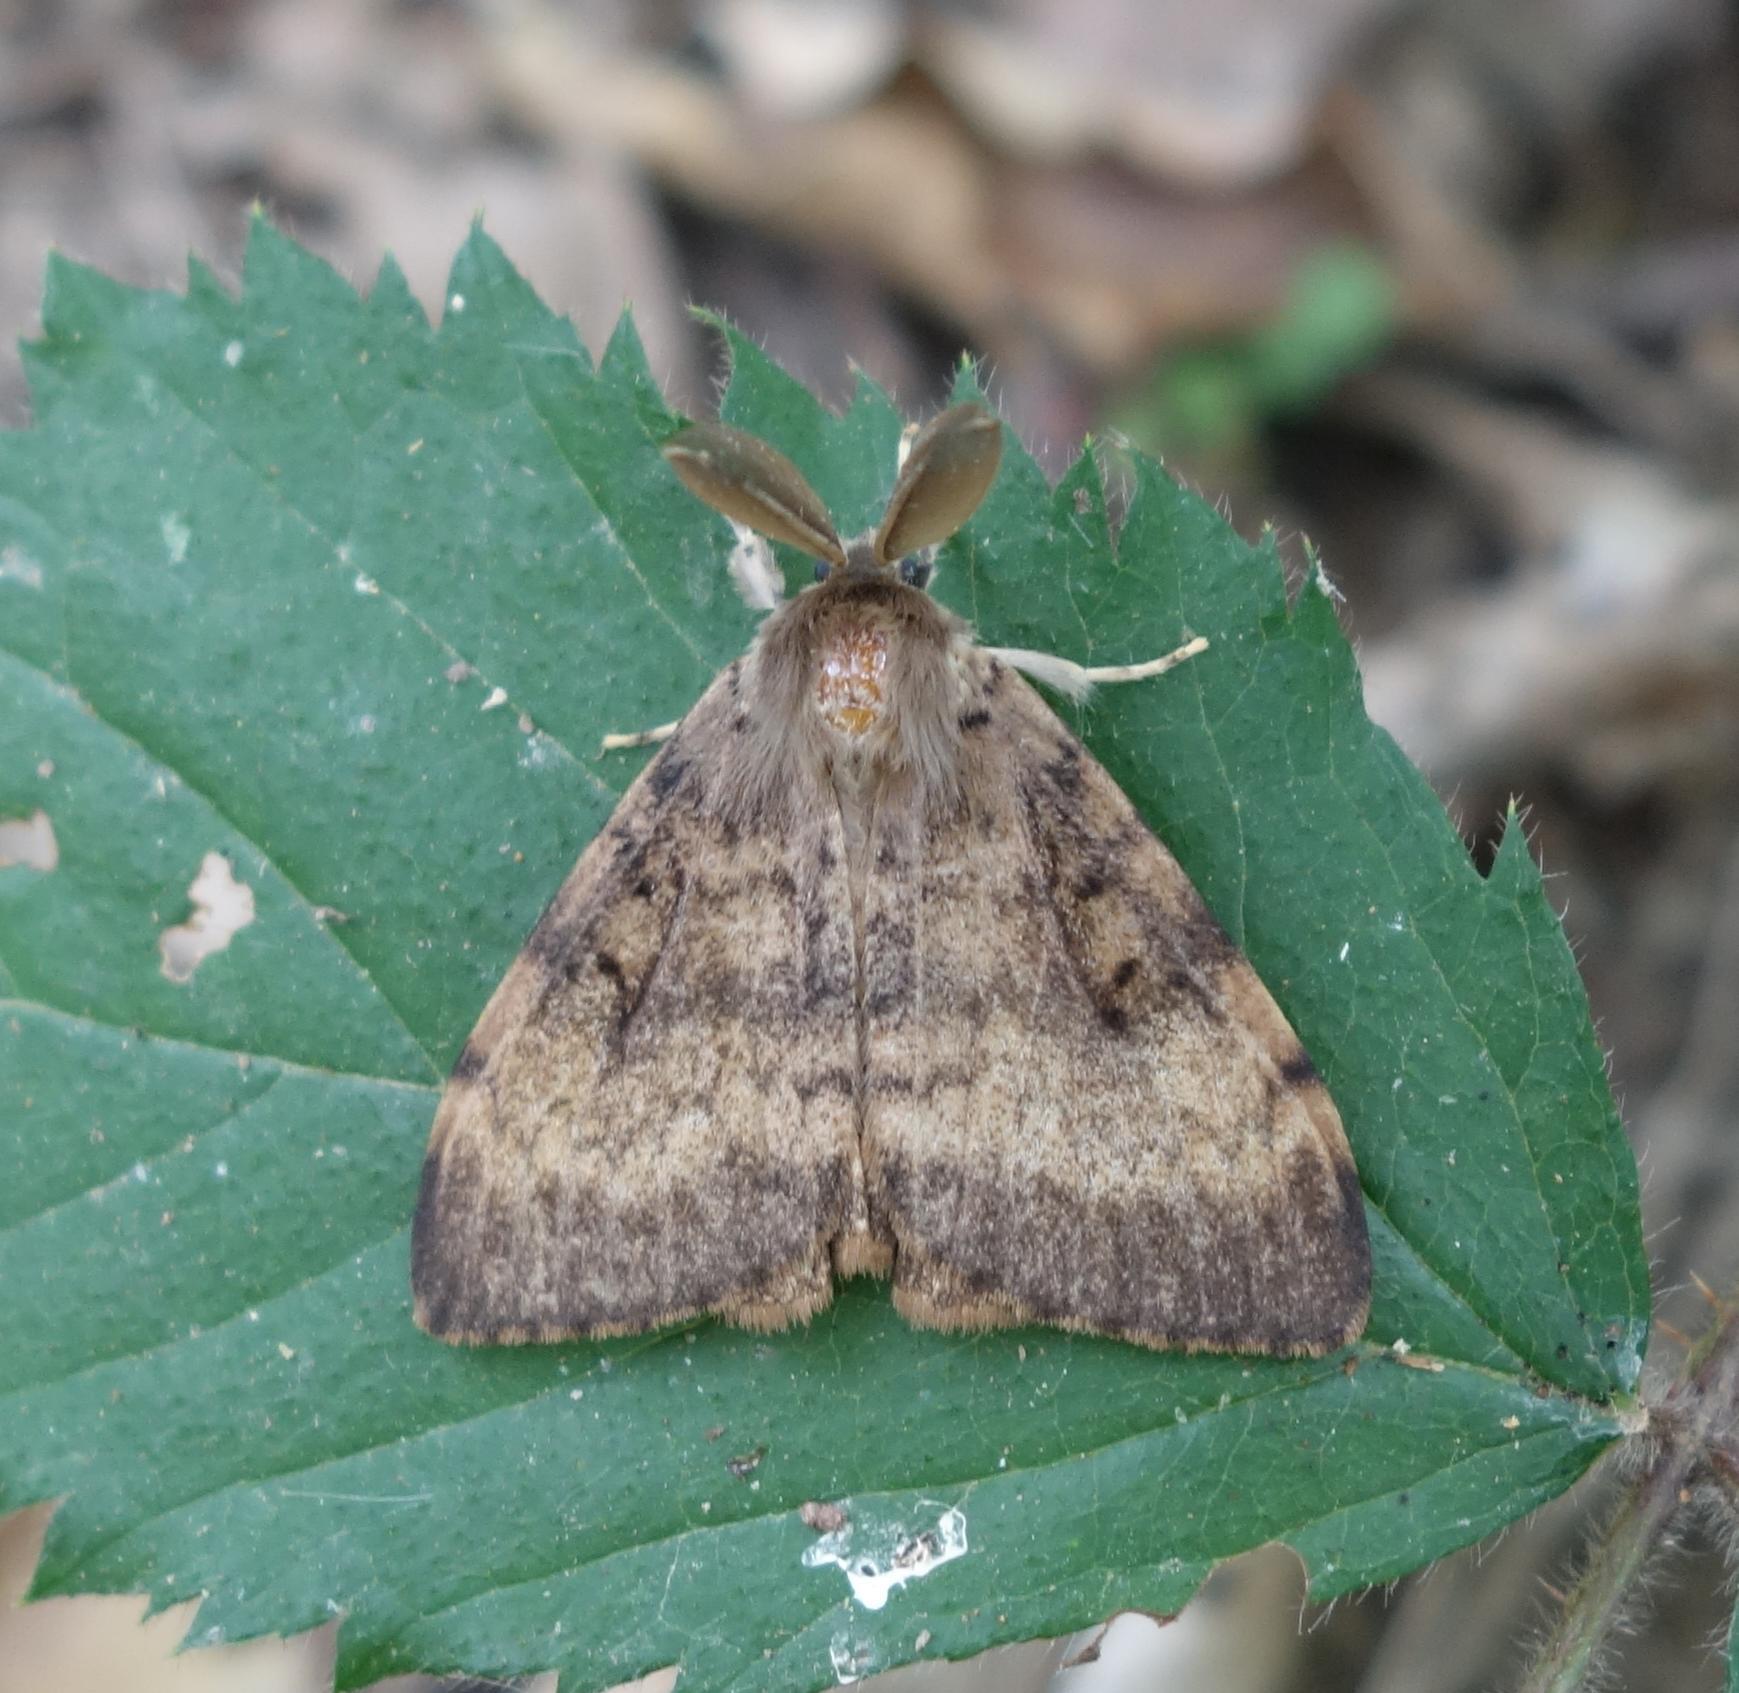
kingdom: Animalia
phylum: Arthropoda
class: Insecta
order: Lepidoptera
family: Erebidae
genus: Lymantria
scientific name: Lymantria dispar
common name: Gypsy moth
